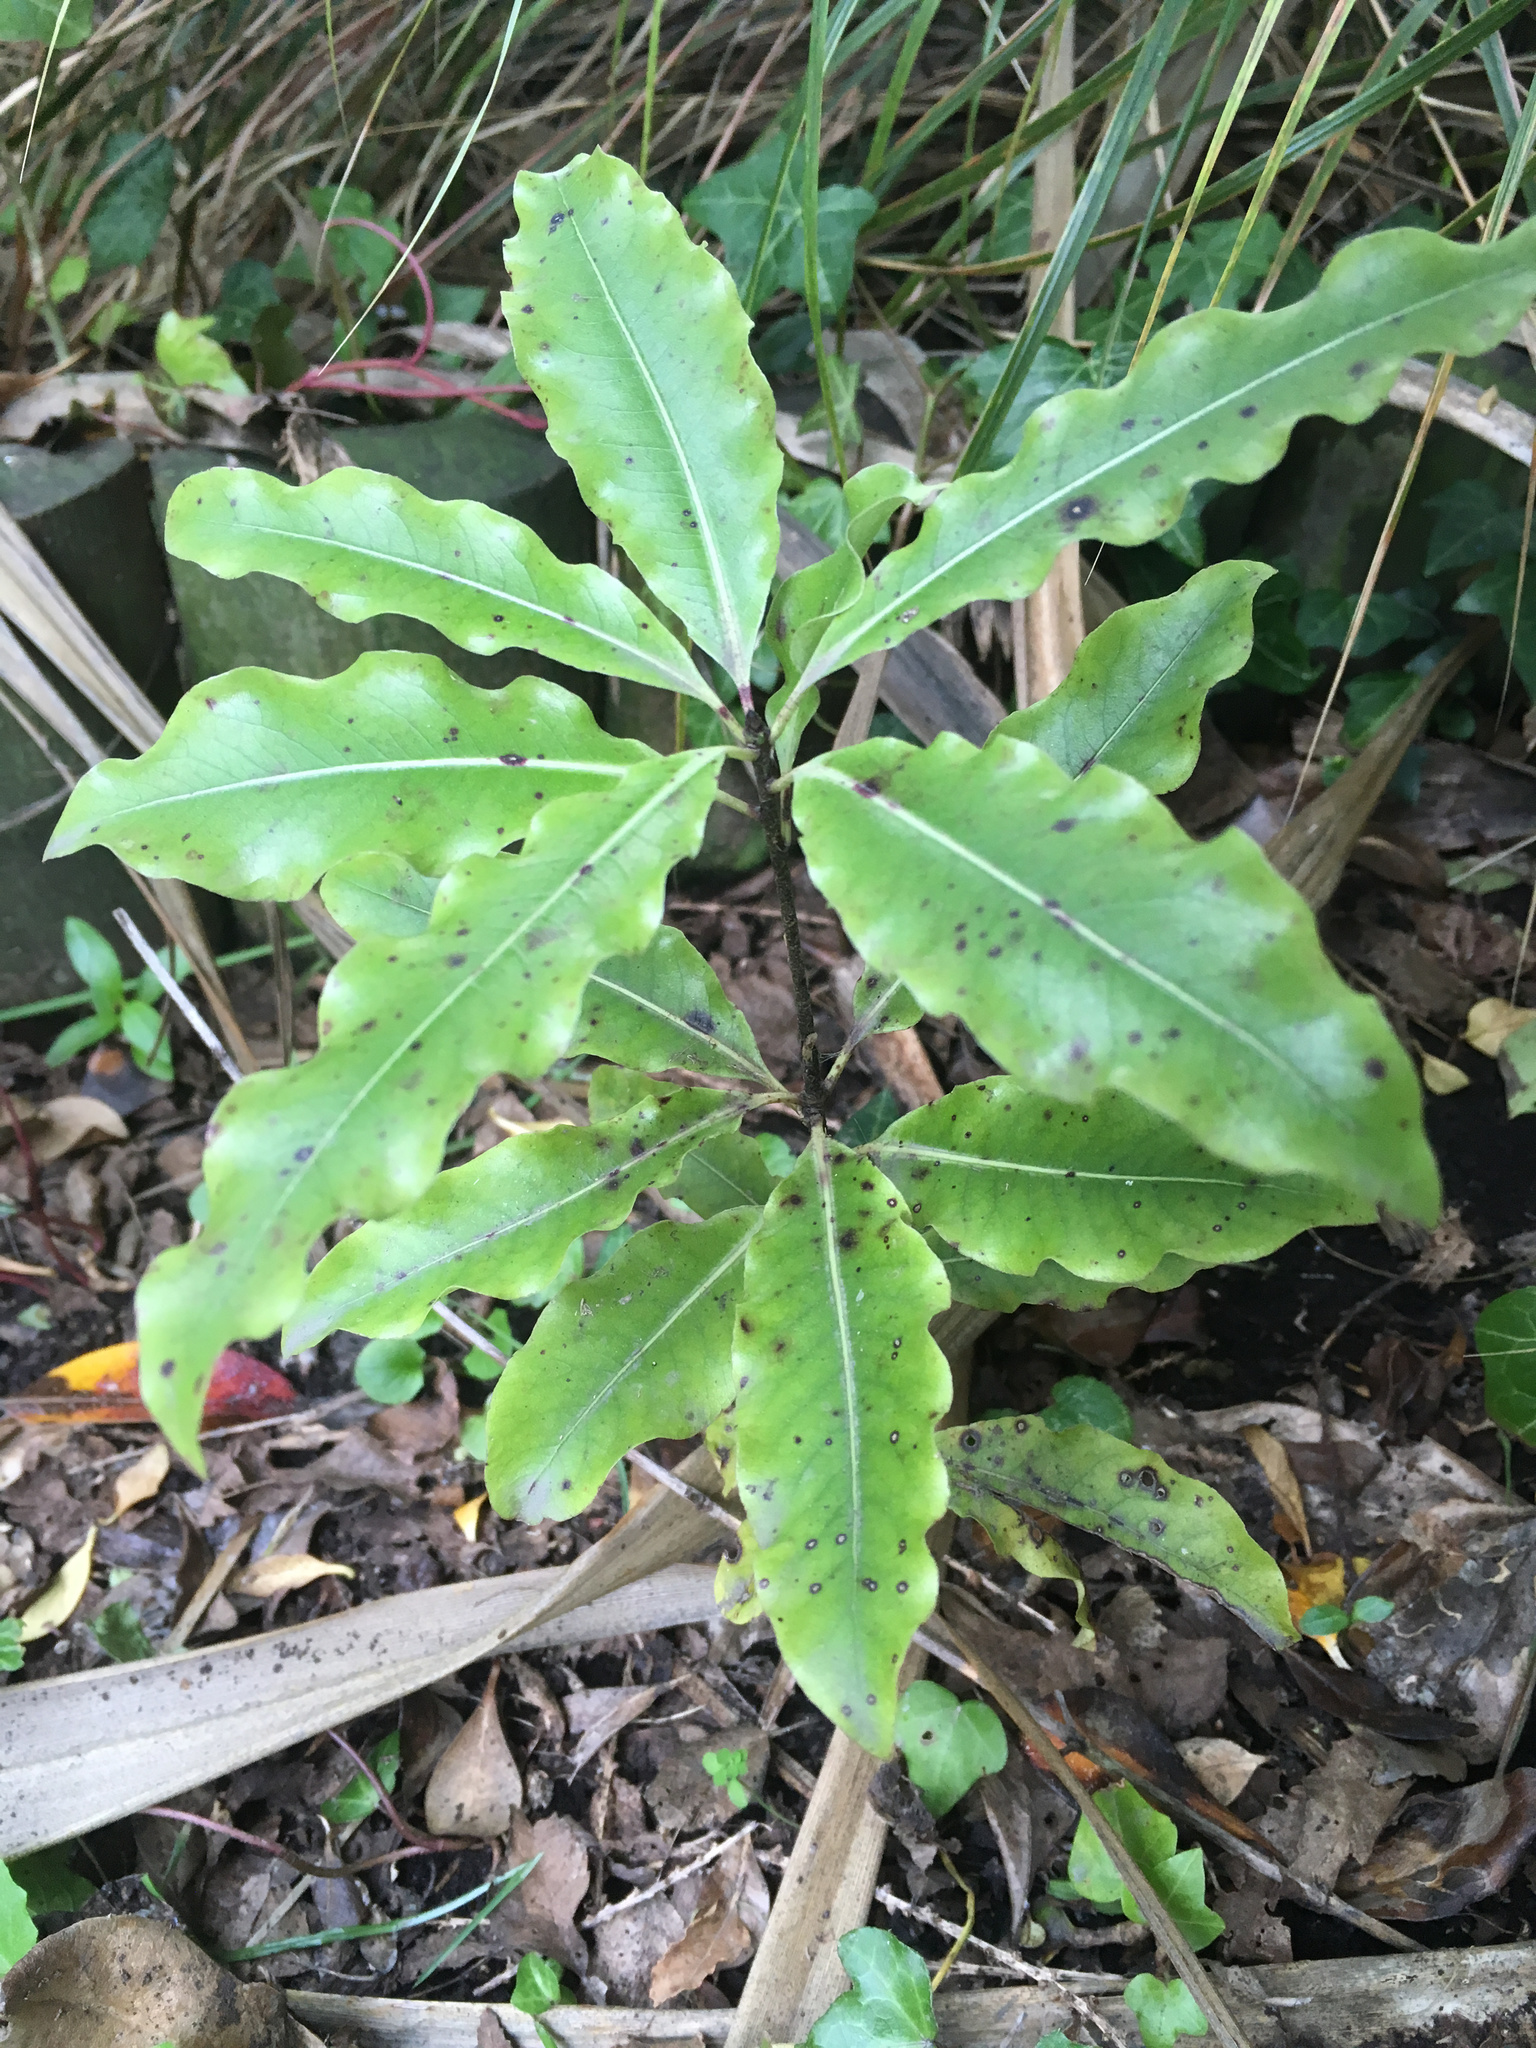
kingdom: Plantae
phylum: Tracheophyta
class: Magnoliopsida
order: Apiales
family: Pittosporaceae
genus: Pittosporum
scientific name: Pittosporum eugenioides
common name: Lemonwood
